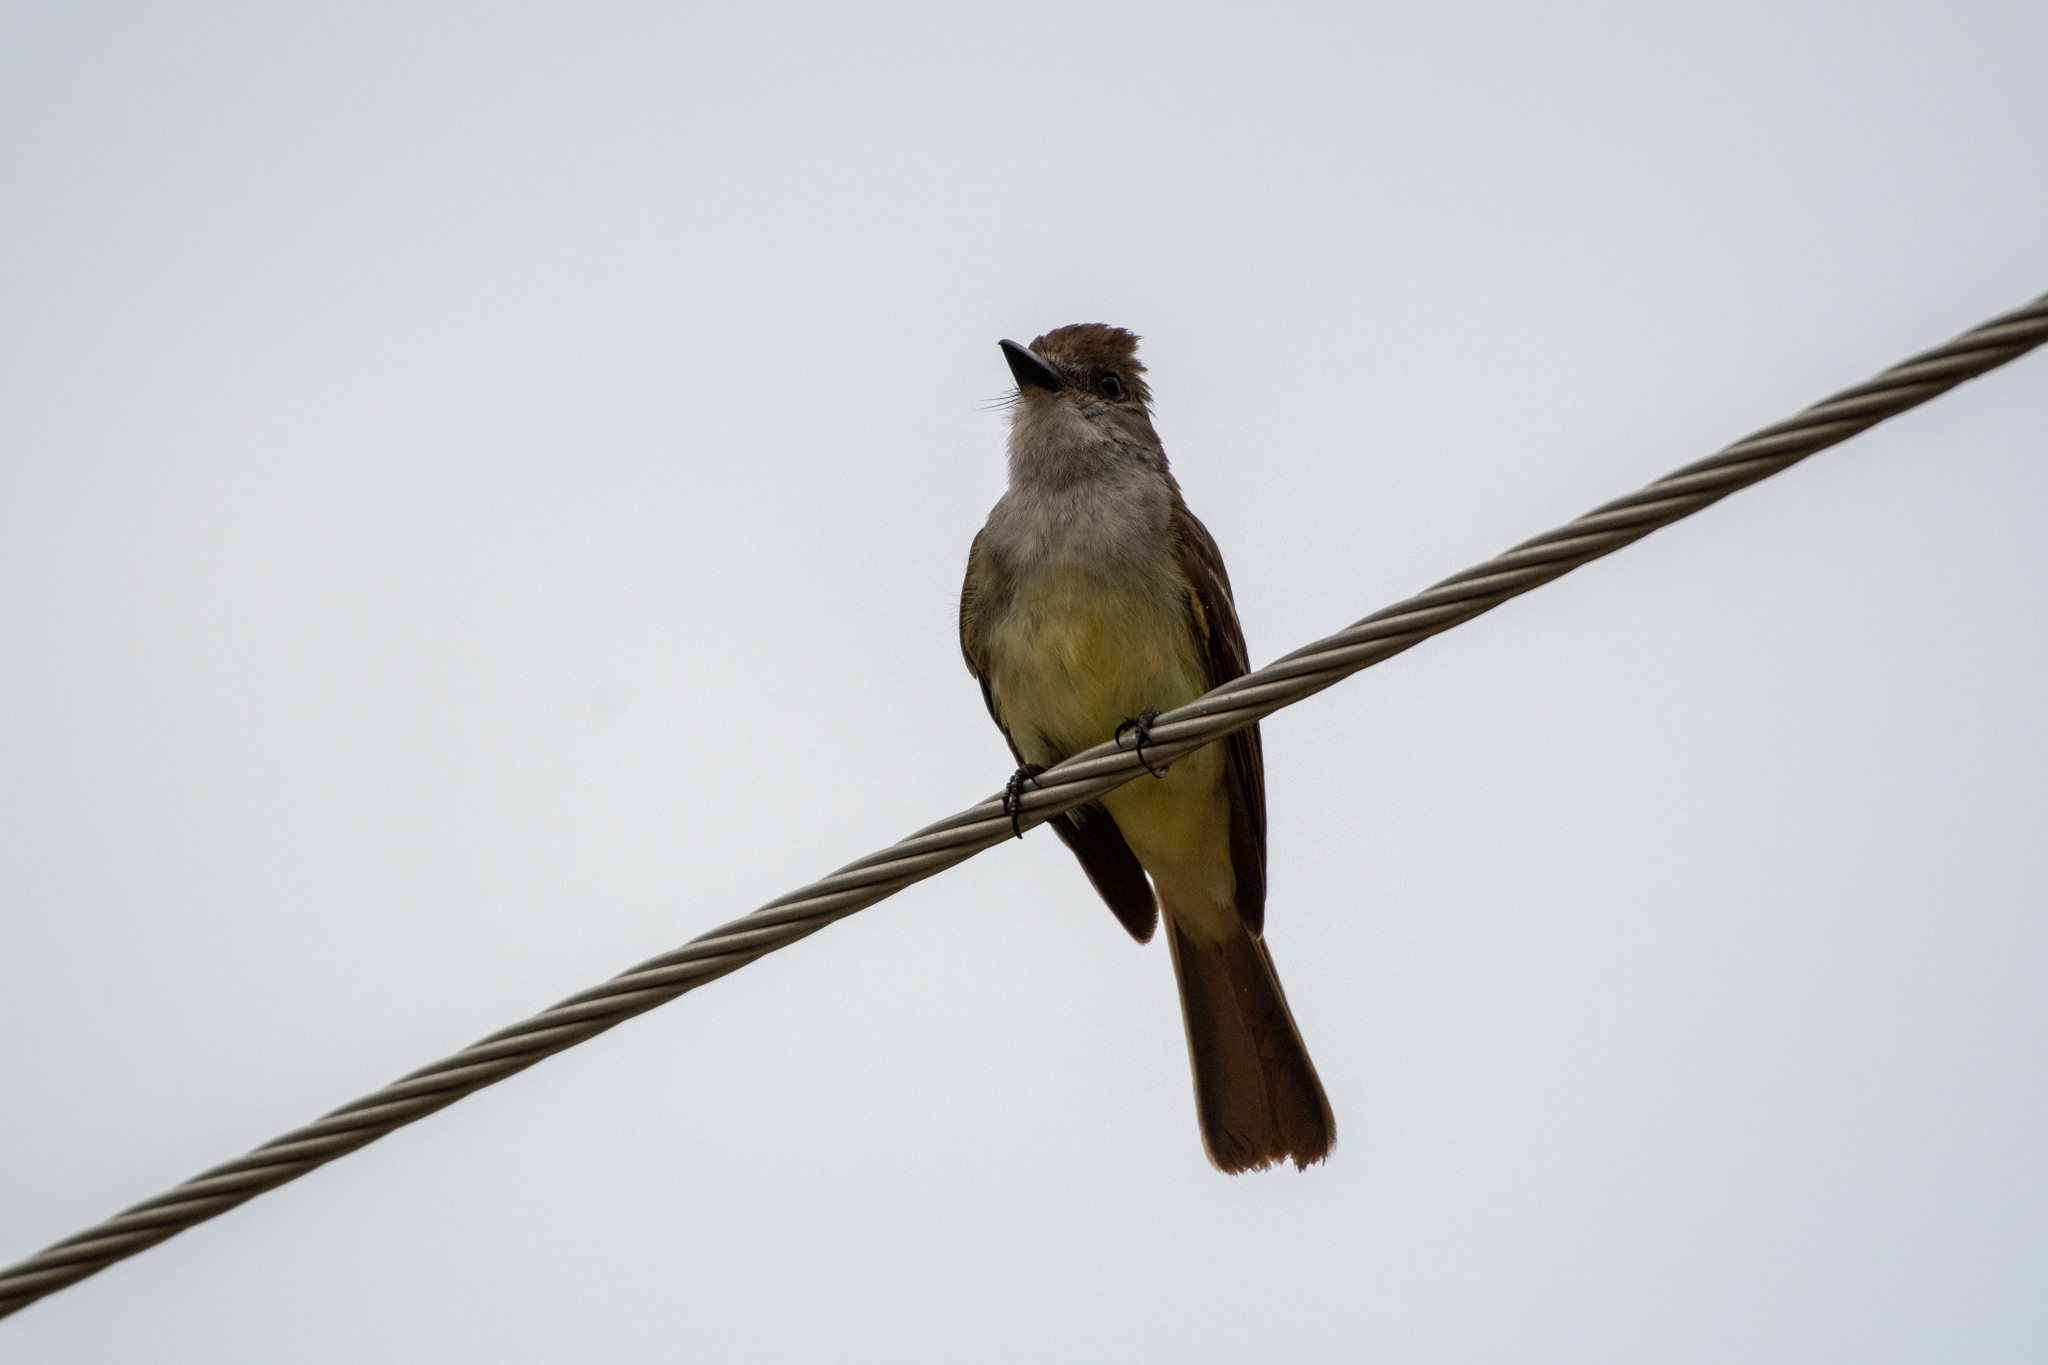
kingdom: Animalia
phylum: Chordata
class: Aves
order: Passeriformes
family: Tyrannidae
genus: Myiarchus
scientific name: Myiarchus tyrannulus
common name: Brown-crested flycatcher
